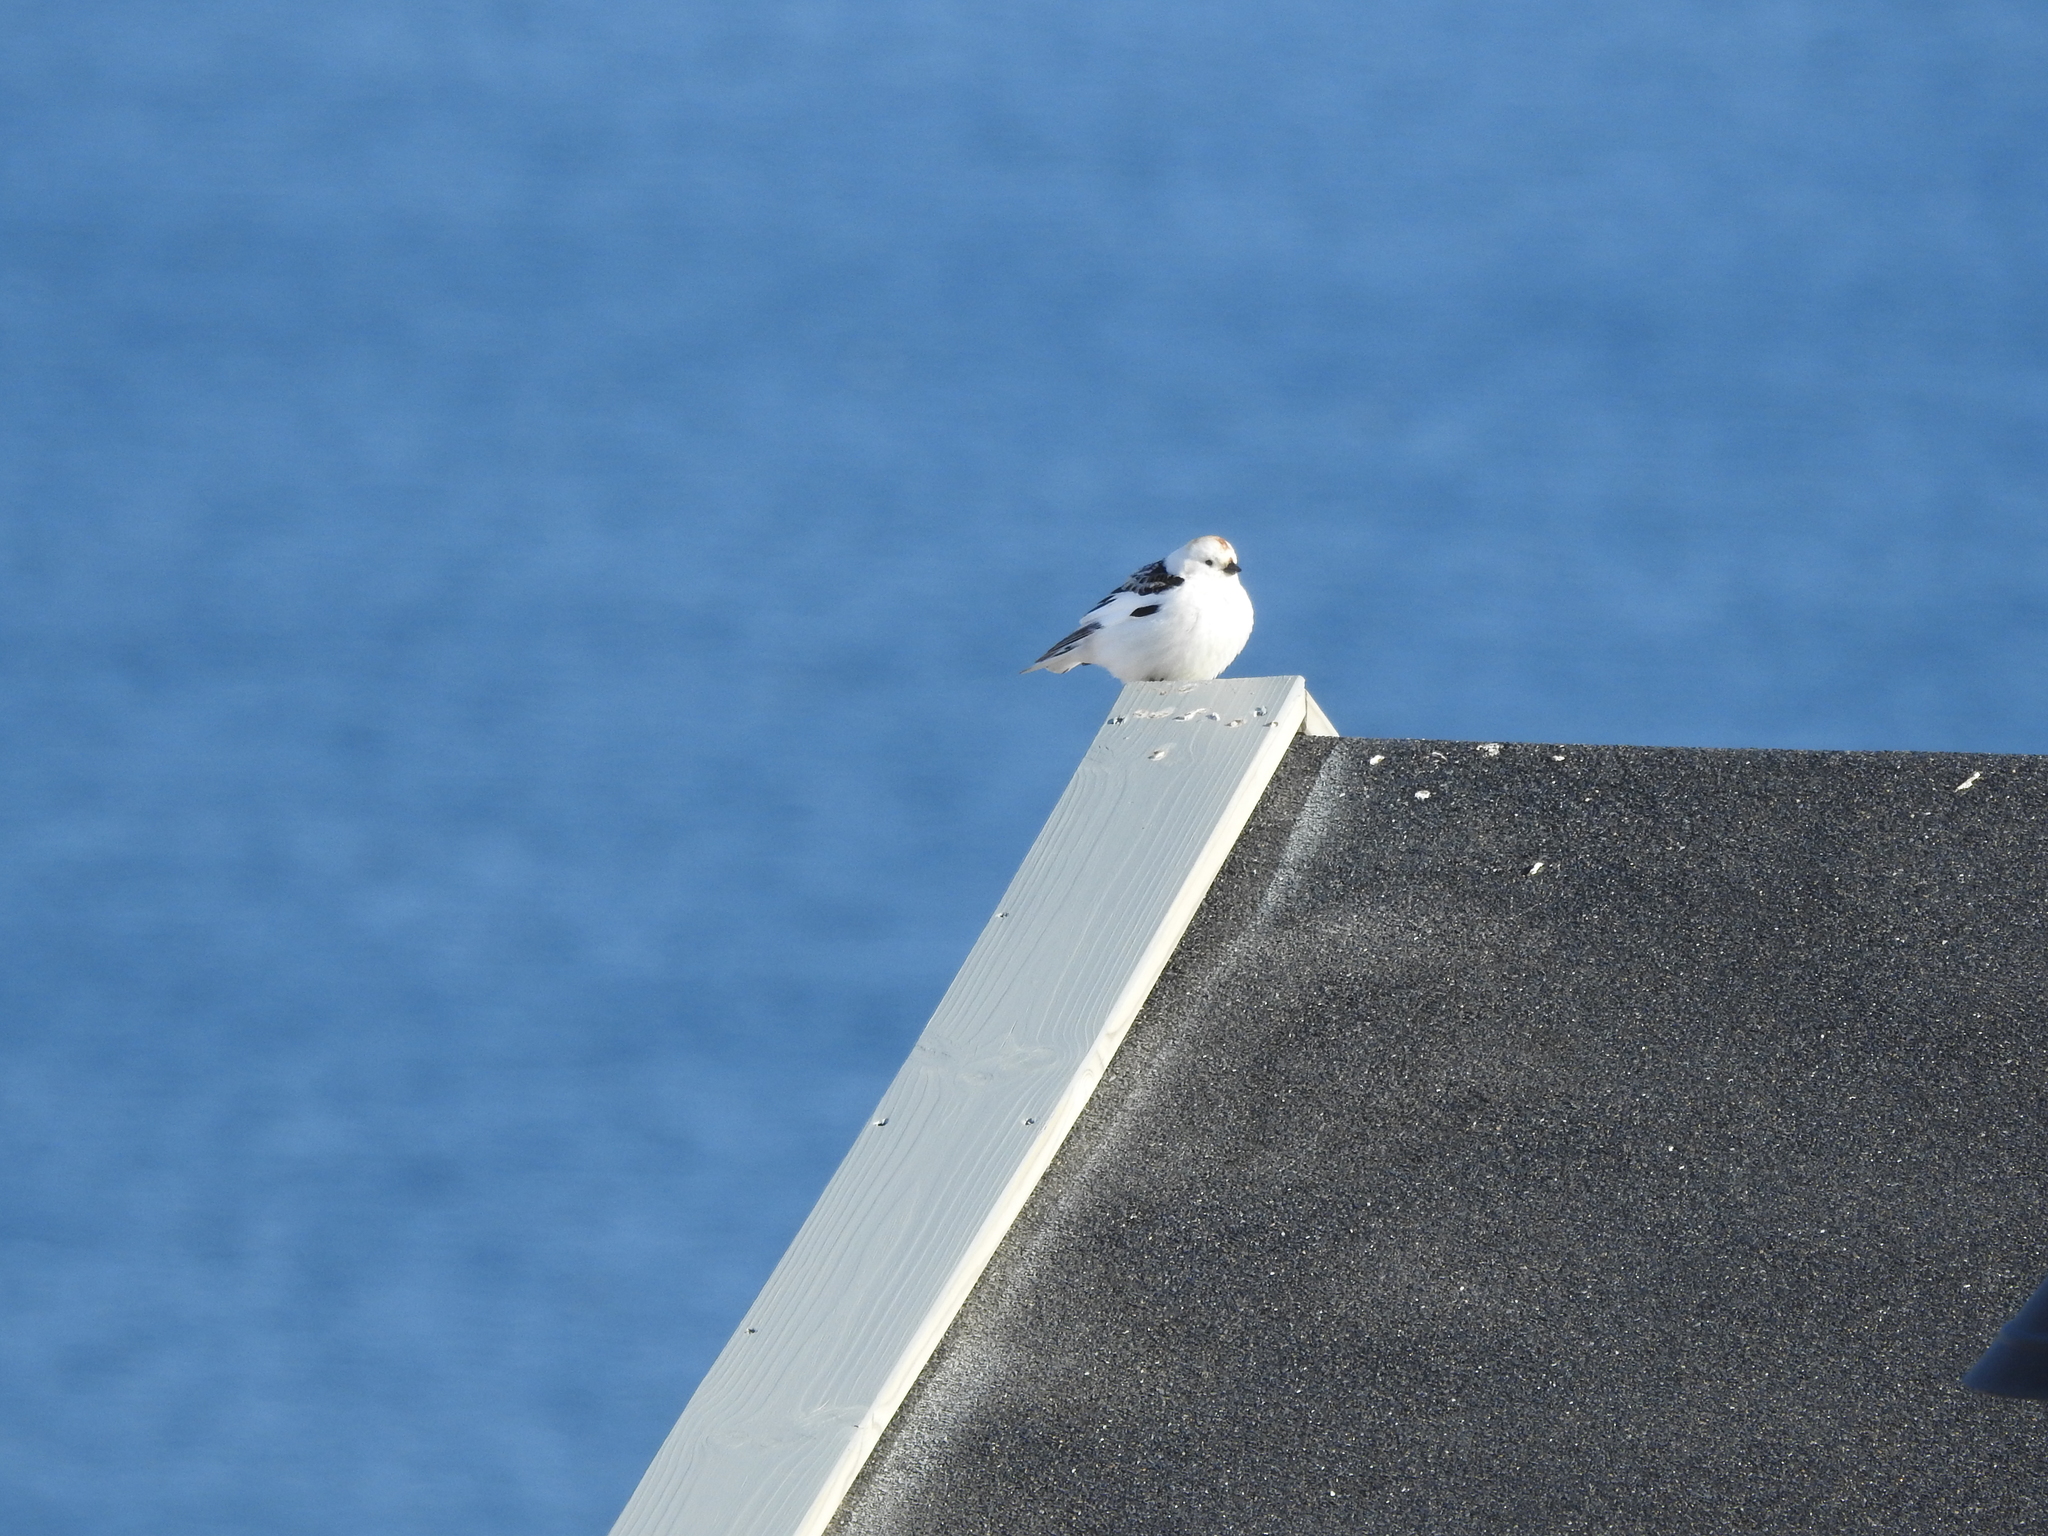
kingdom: Animalia
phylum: Chordata
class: Aves
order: Passeriformes
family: Calcariidae
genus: Plectrophenax
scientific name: Plectrophenax nivalis
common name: Snow bunting
